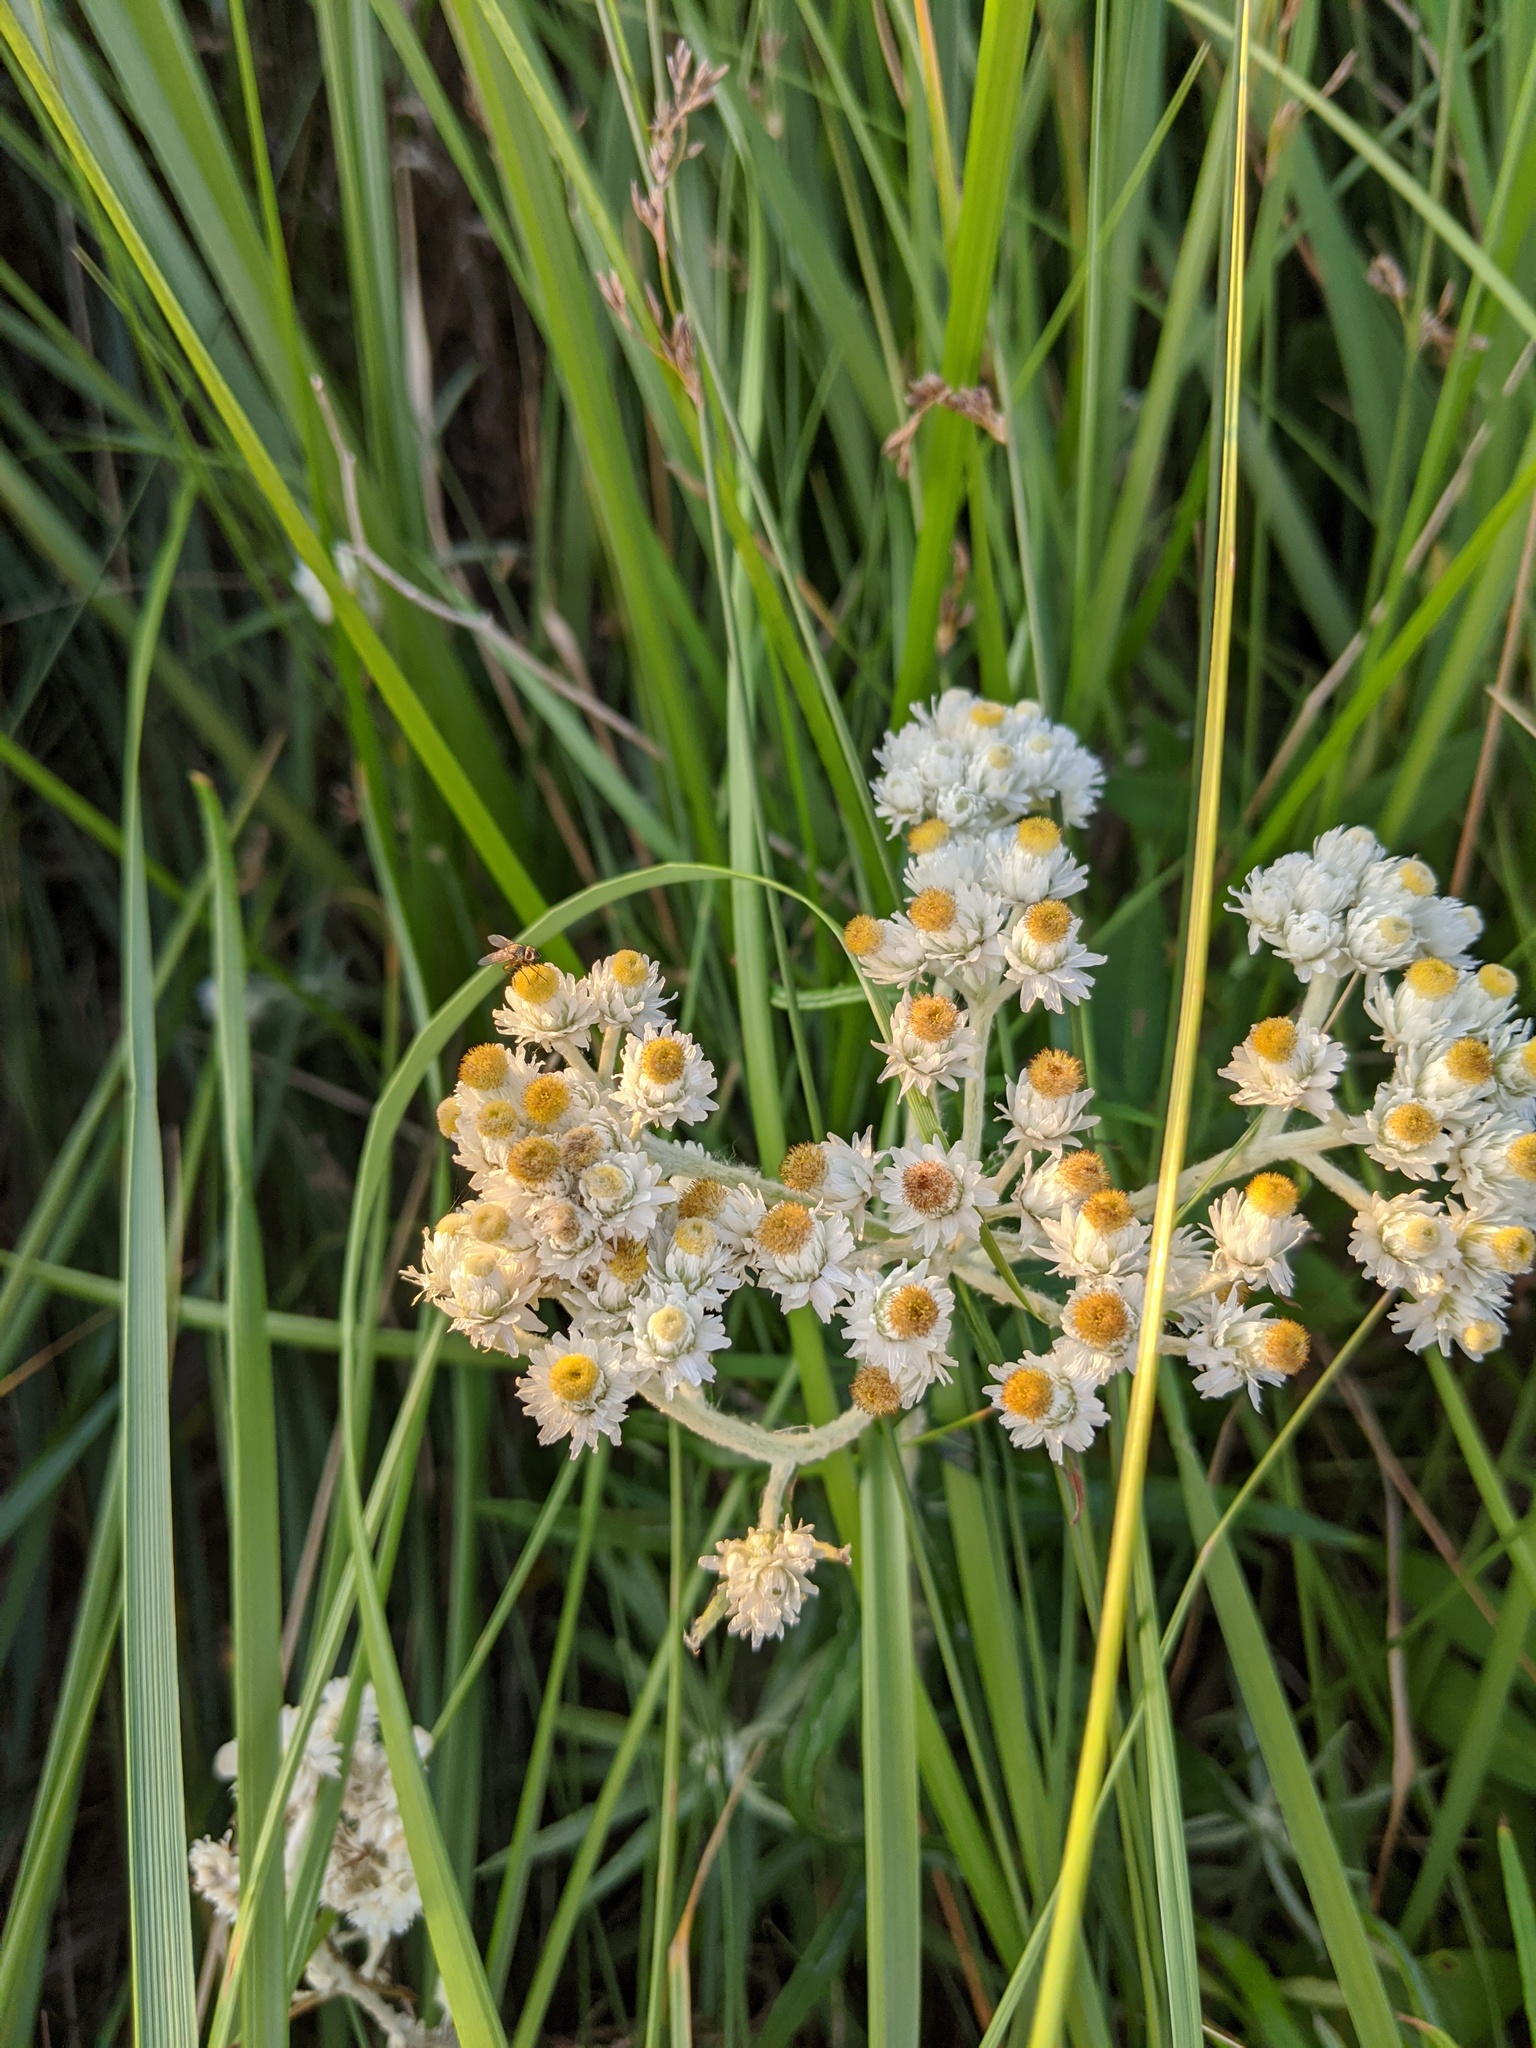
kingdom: Plantae
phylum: Tracheophyta
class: Magnoliopsida
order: Asterales
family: Asteraceae
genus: Anaphalis
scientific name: Anaphalis margaritacea
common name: Pearly everlasting
